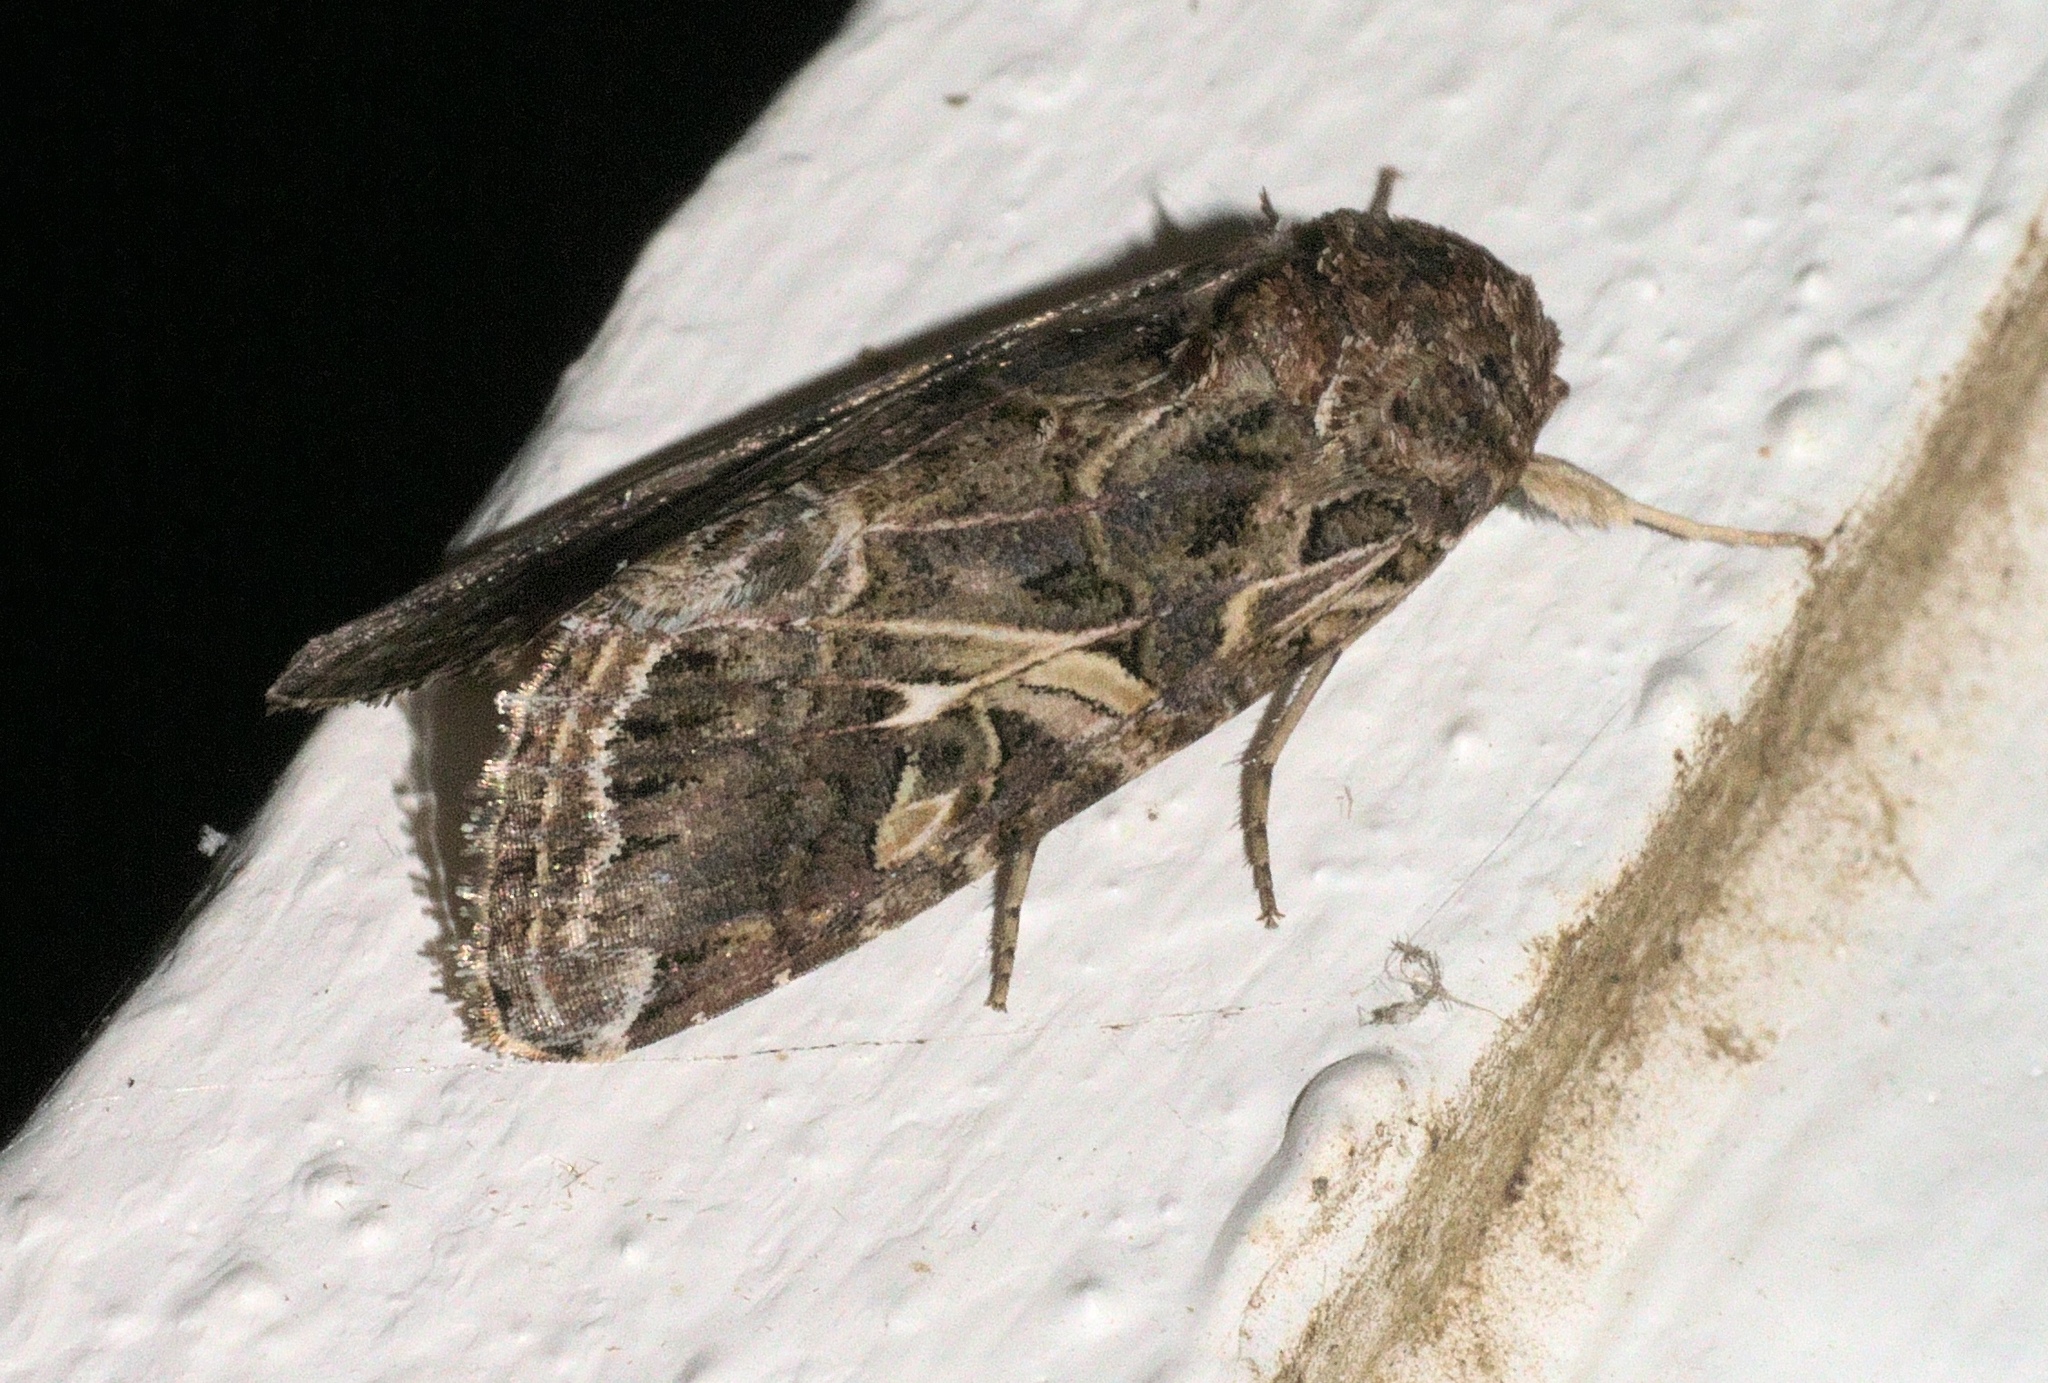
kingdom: Animalia
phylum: Arthropoda
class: Insecta
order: Lepidoptera
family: Noctuidae
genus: Spodoptera
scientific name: Spodoptera ornithogalli
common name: Yellow-striped armyworm
